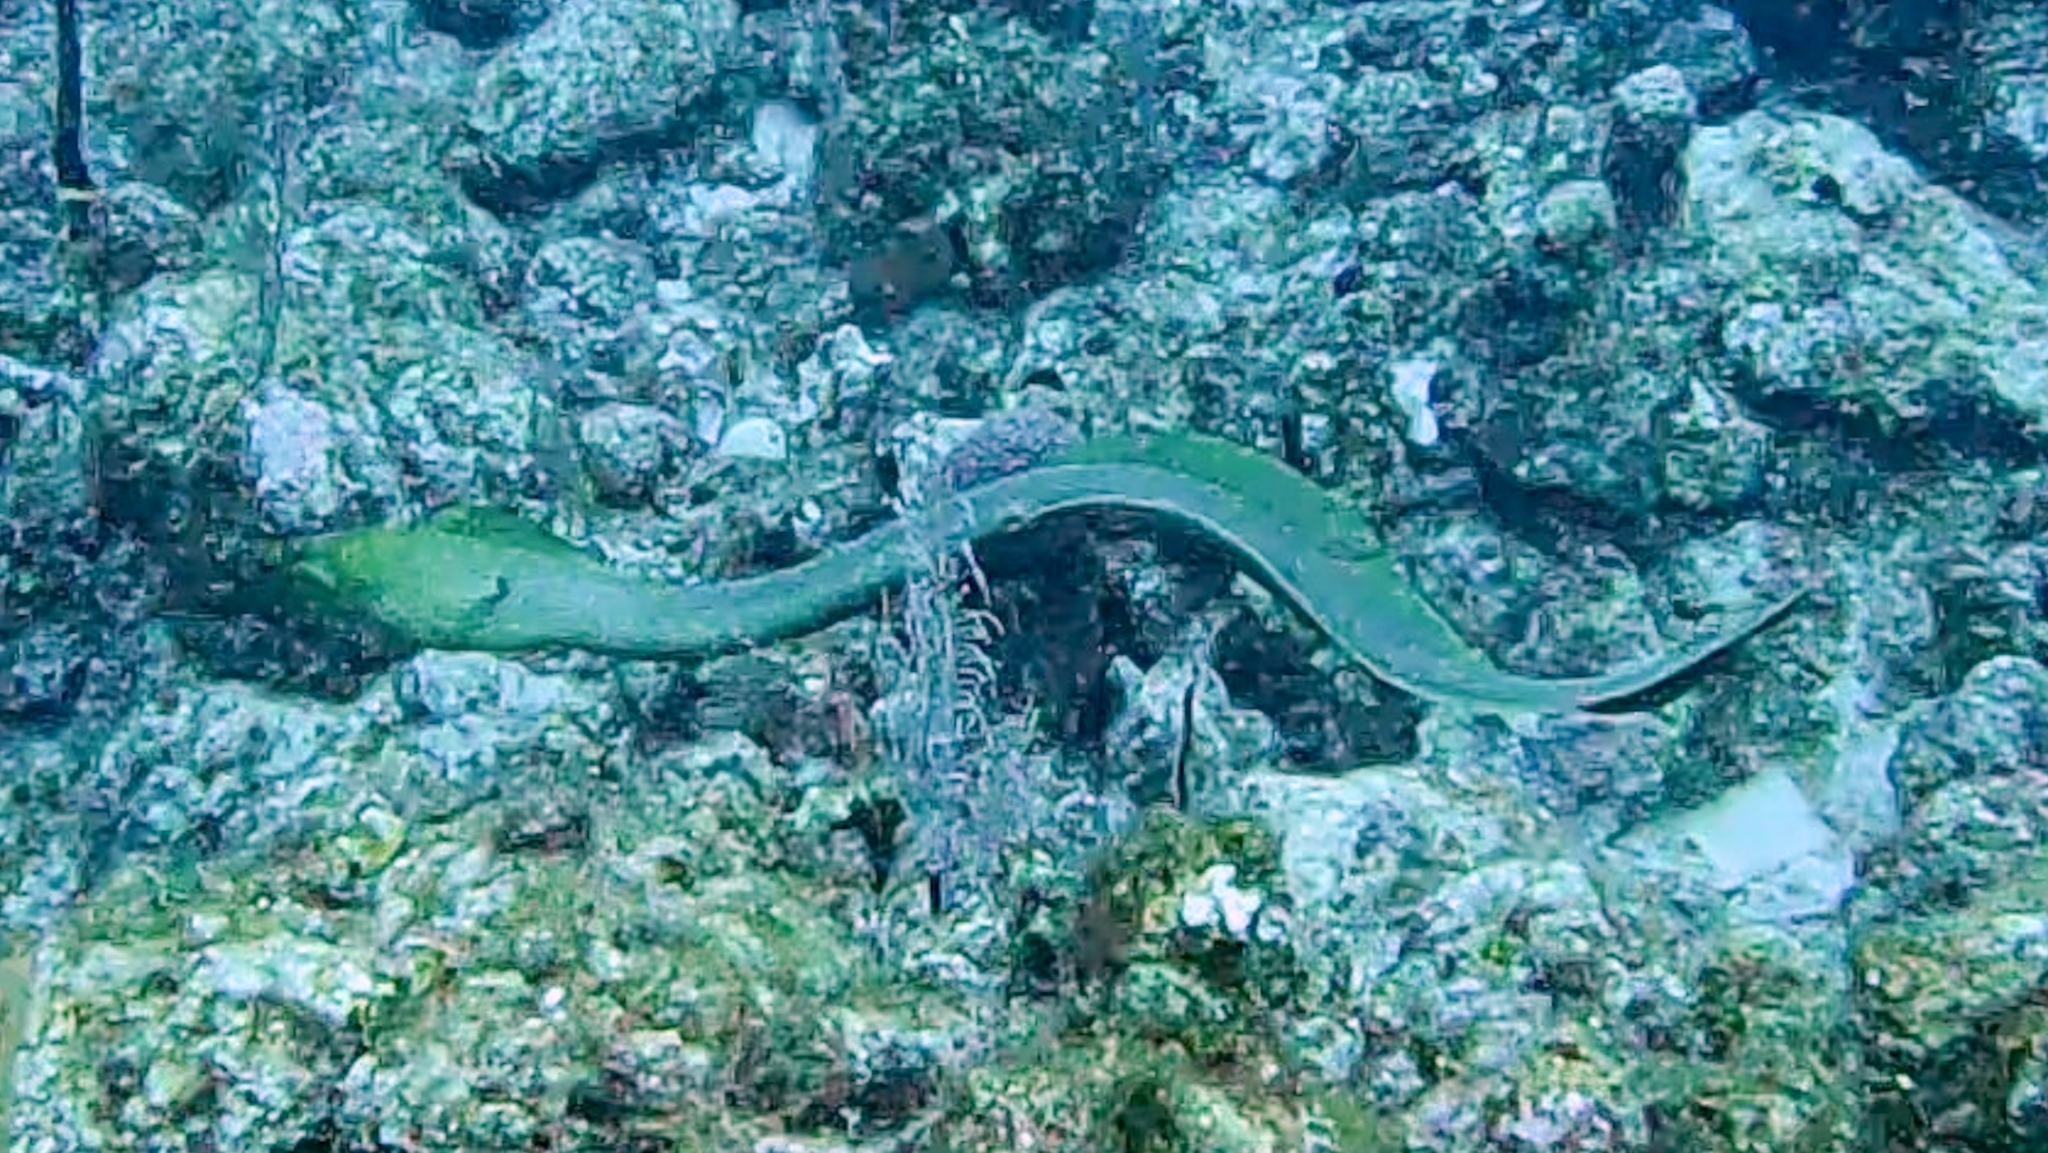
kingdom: Animalia
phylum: Chordata
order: Anguilliformes
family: Muraenidae
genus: Gymnothorax
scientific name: Gymnothorax funebris
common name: Green moray
